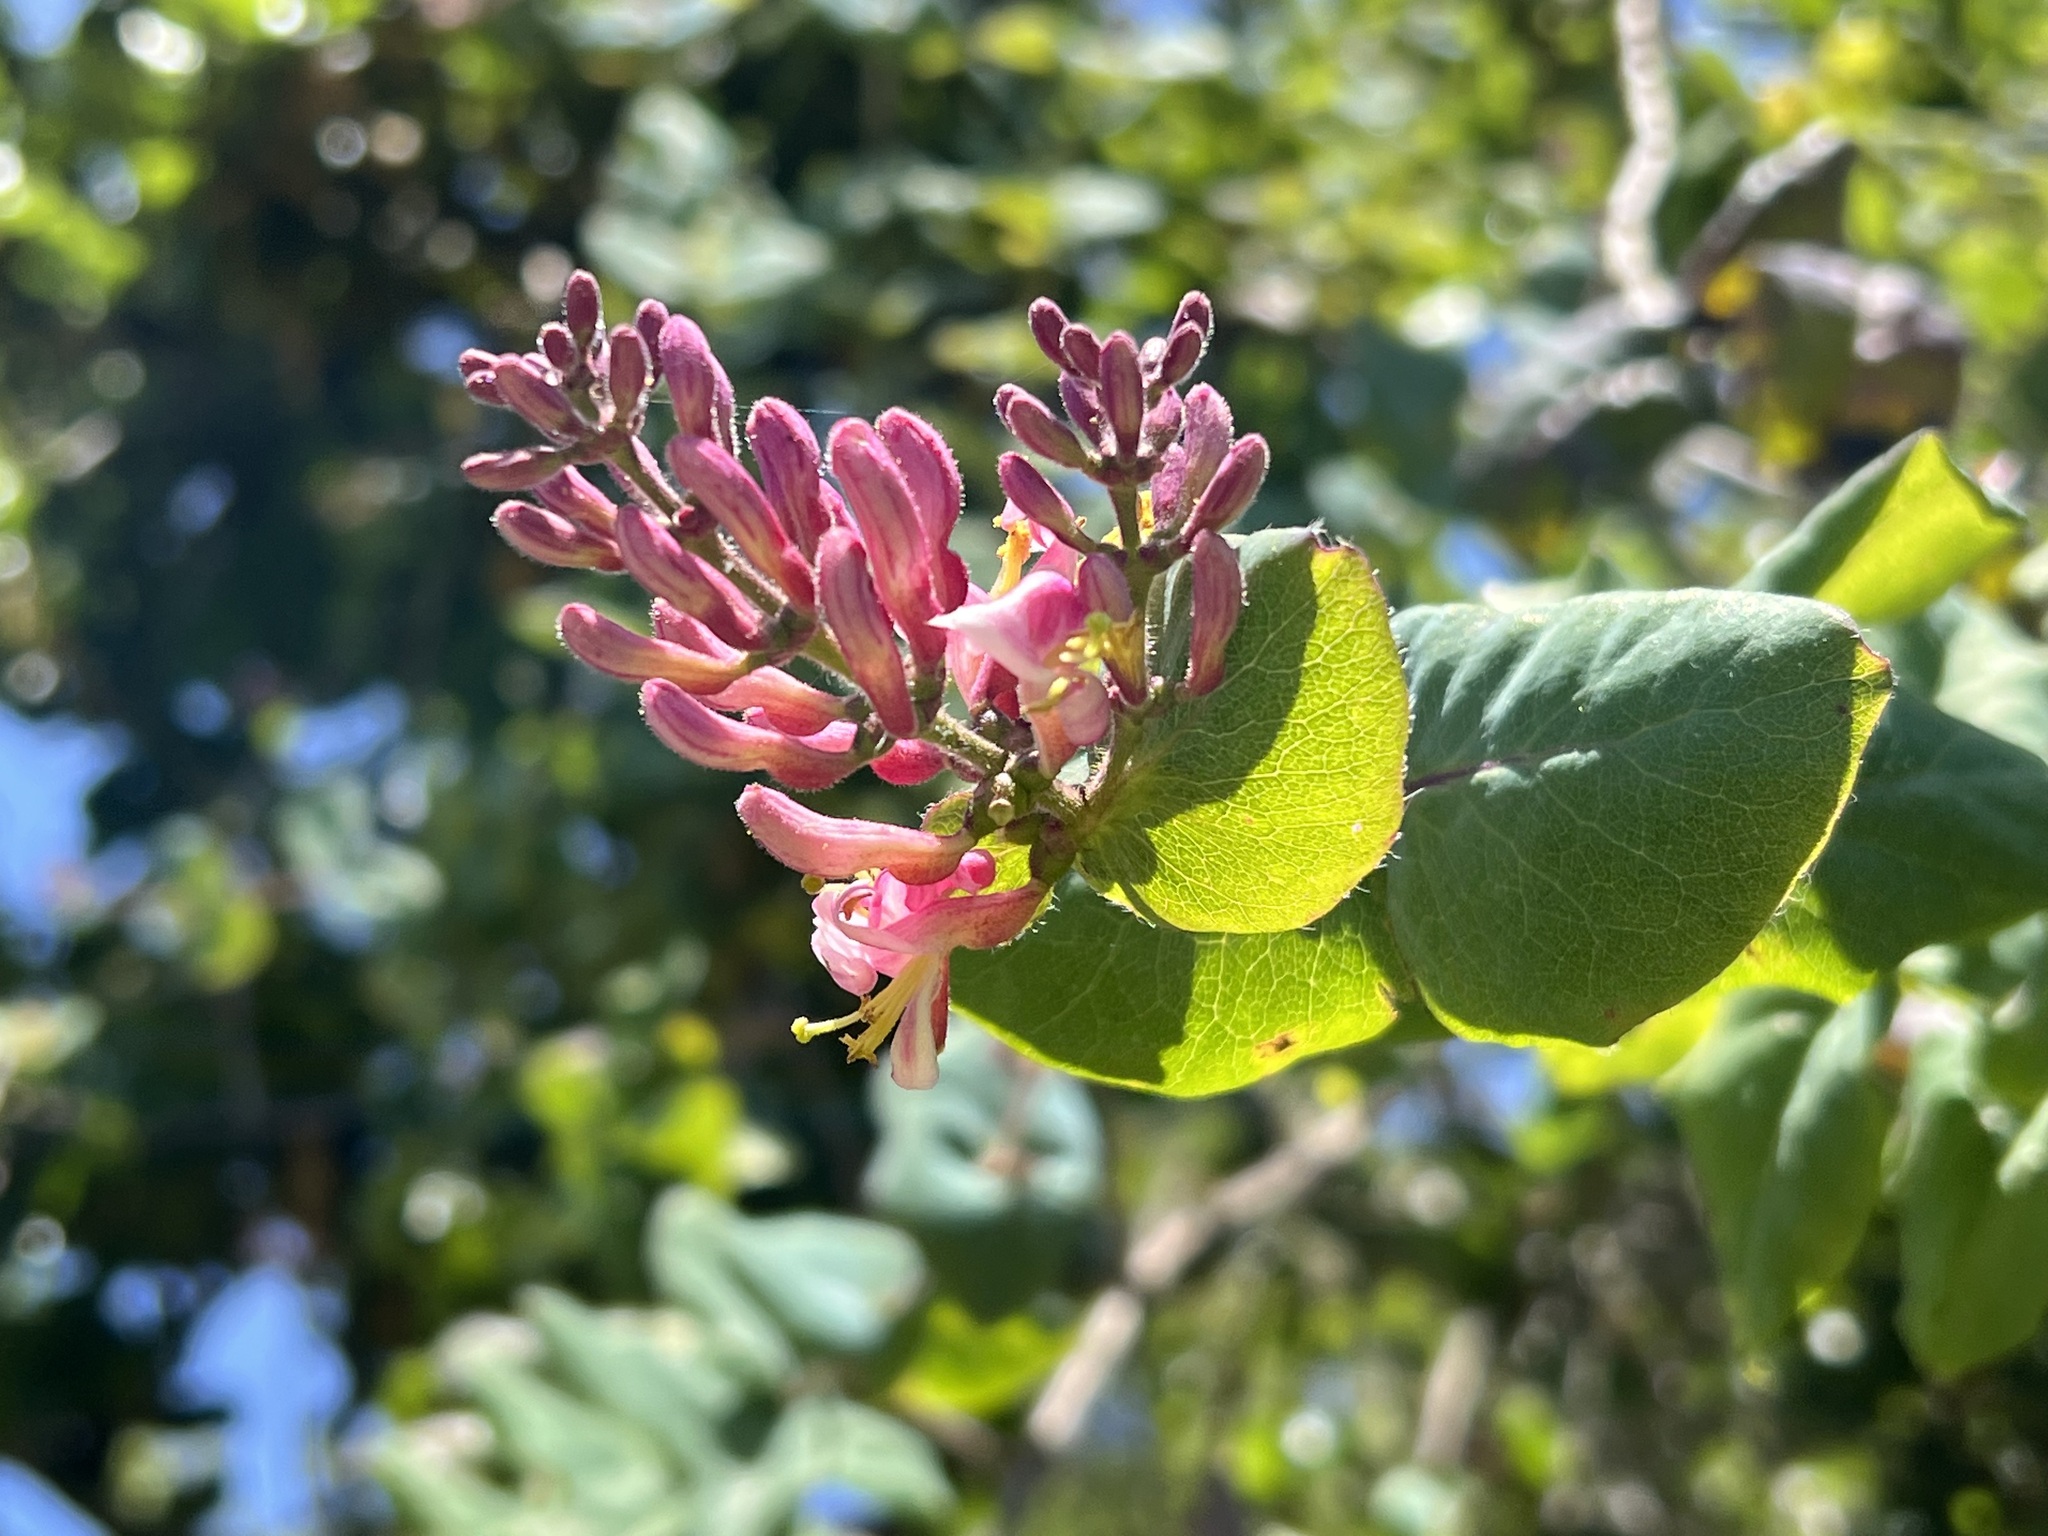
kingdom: Plantae
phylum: Tracheophyta
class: Magnoliopsida
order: Dipsacales
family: Caprifoliaceae
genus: Lonicera
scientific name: Lonicera hispidula
